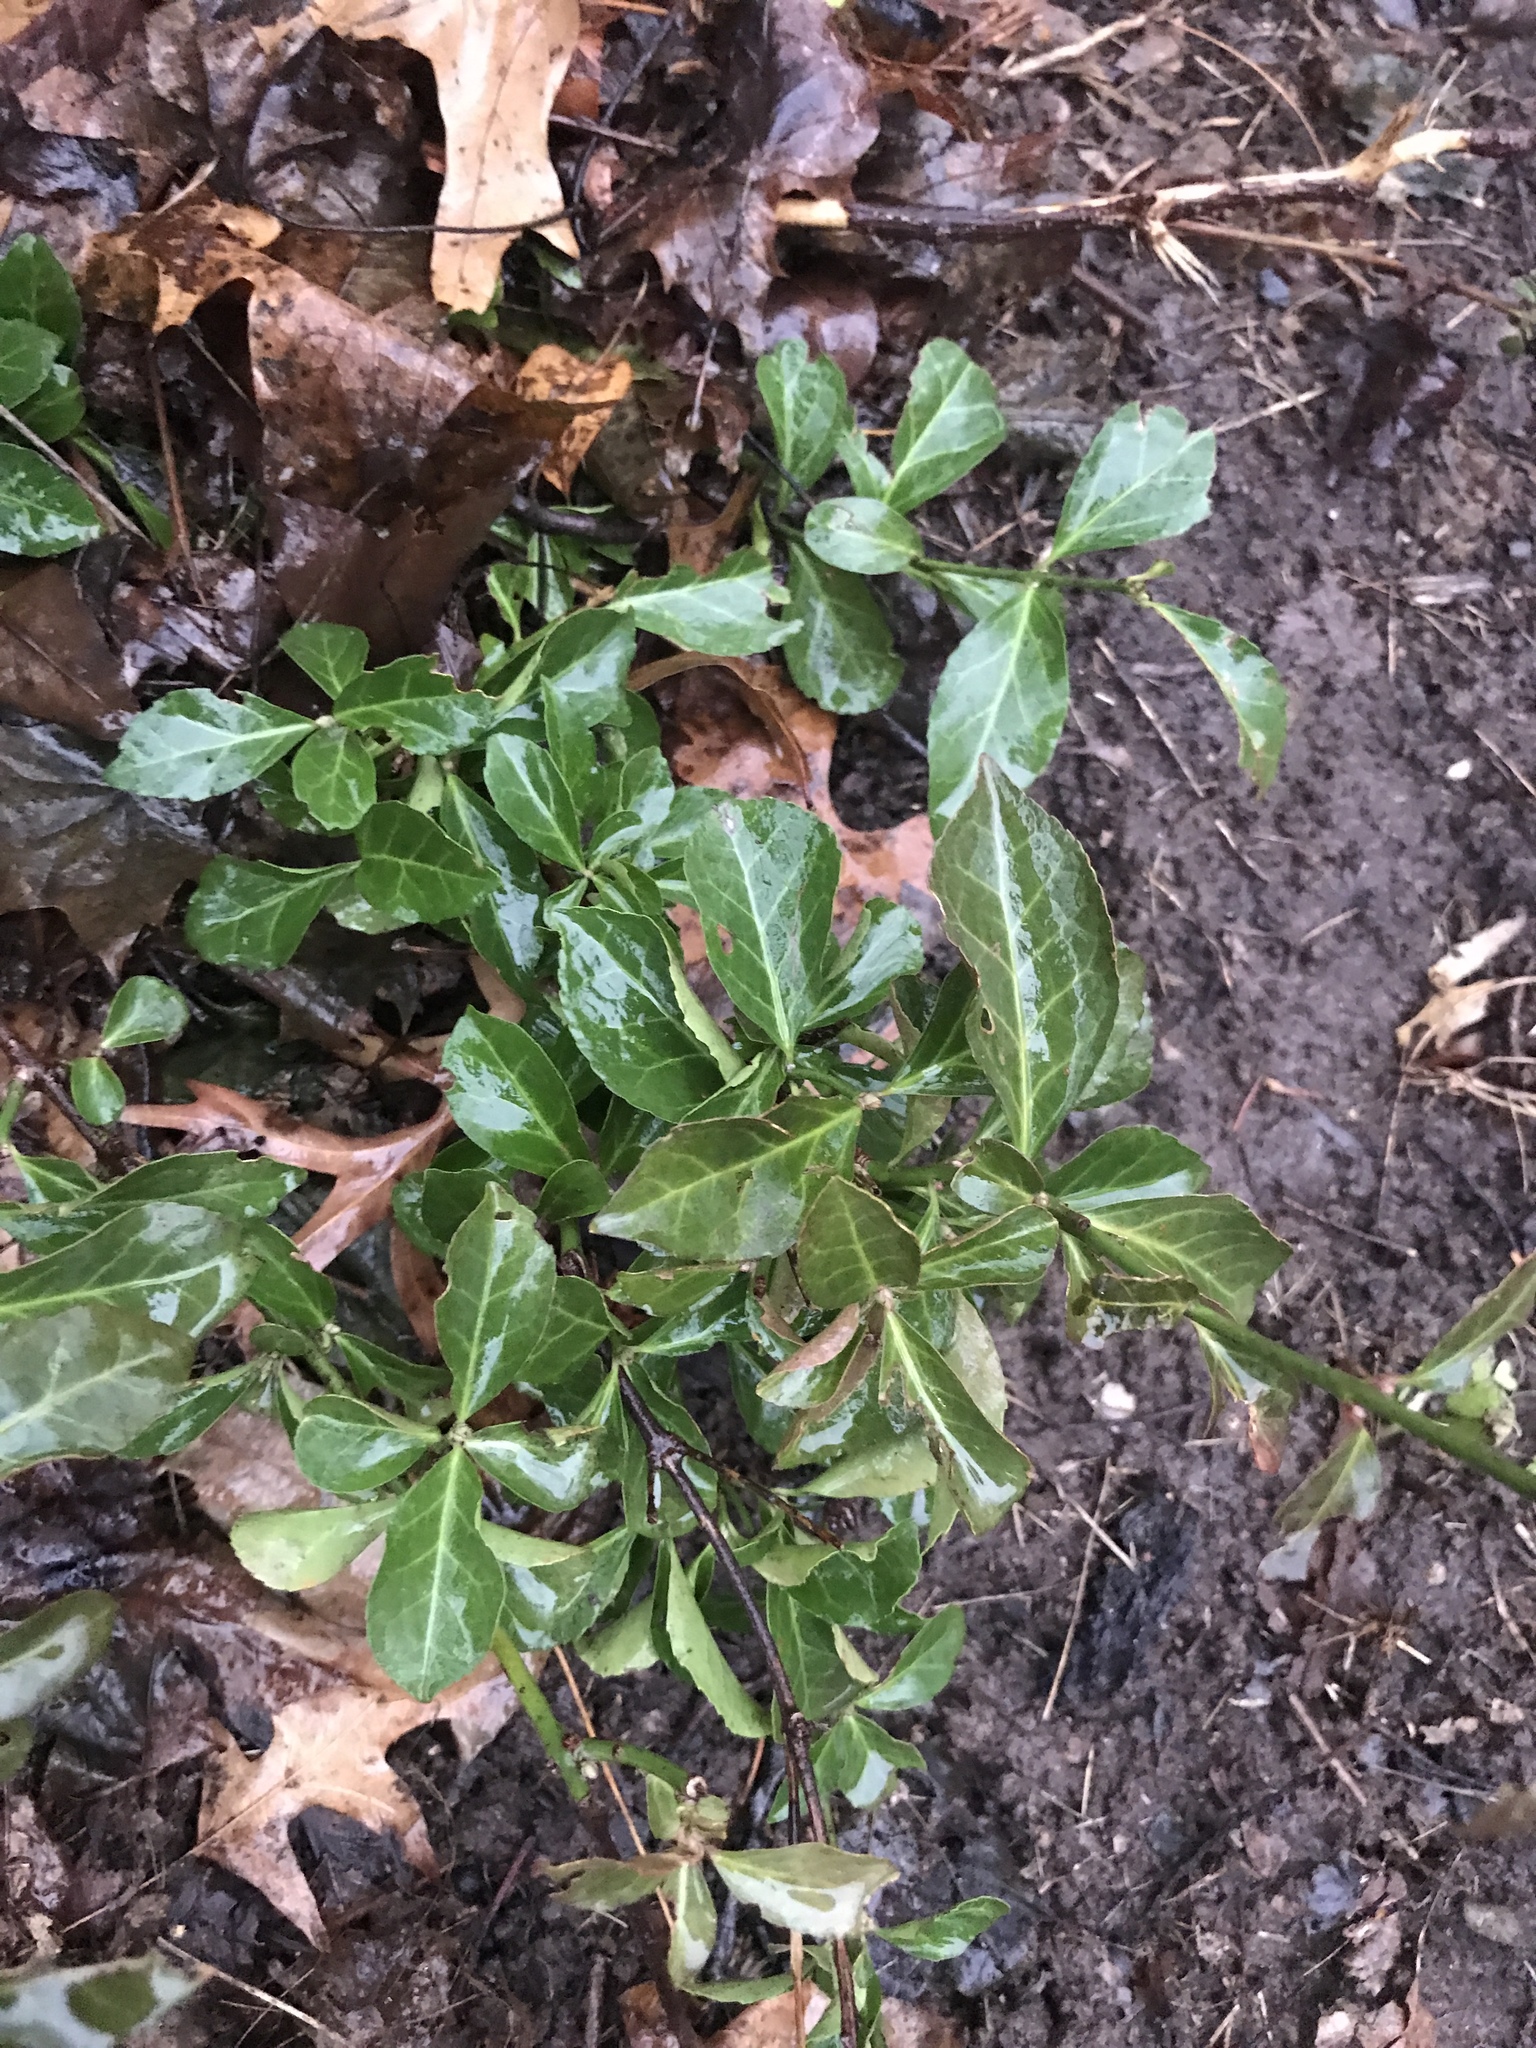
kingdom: Plantae
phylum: Tracheophyta
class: Magnoliopsida
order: Celastrales
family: Celastraceae
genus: Euonymus
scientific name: Euonymus fortunei
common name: Climbing euonymus
